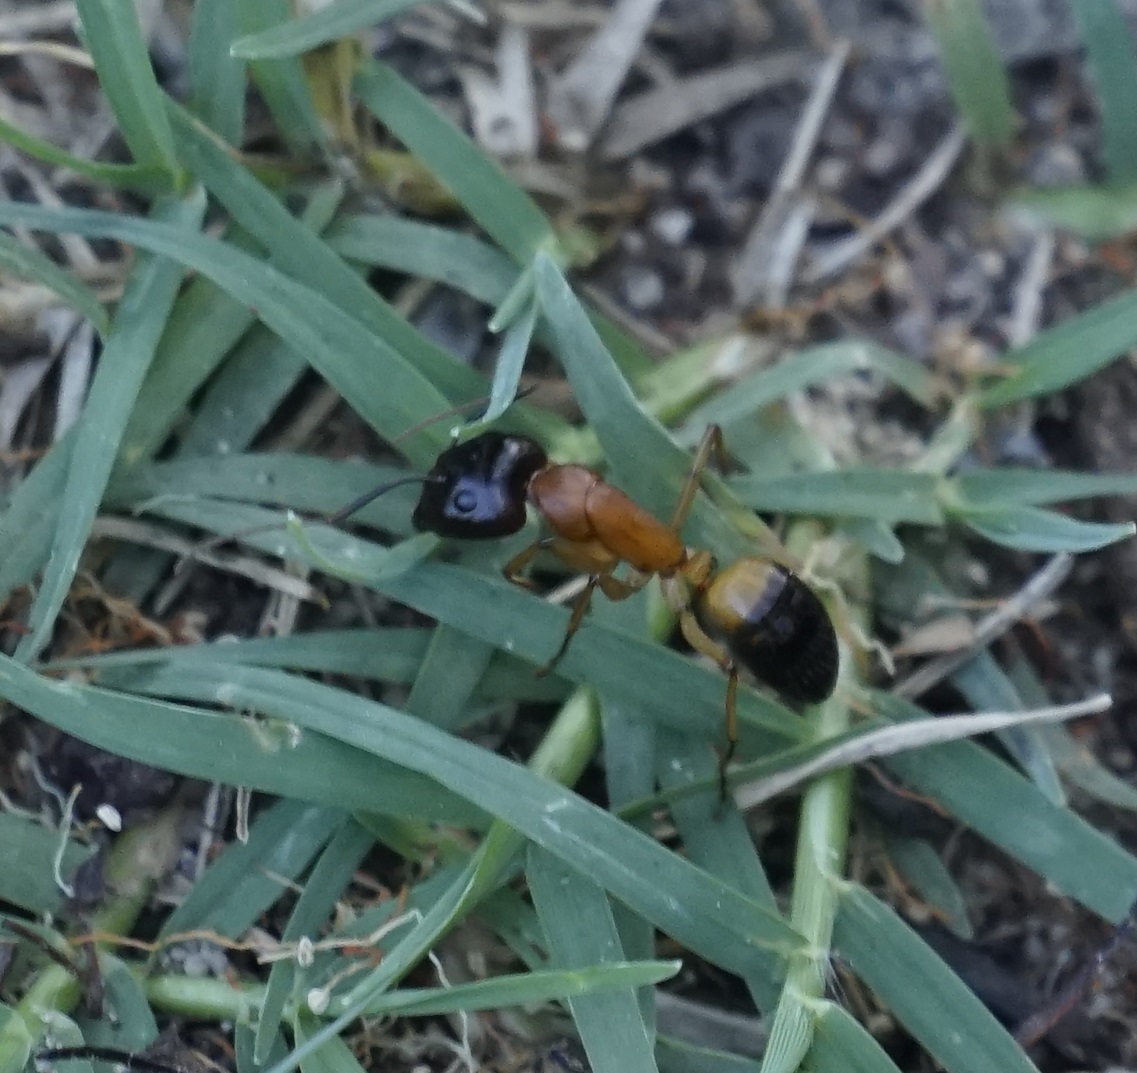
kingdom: Animalia
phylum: Arthropoda
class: Insecta
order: Hymenoptera
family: Formicidae
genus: Camponotus
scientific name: Camponotus consobrinus
